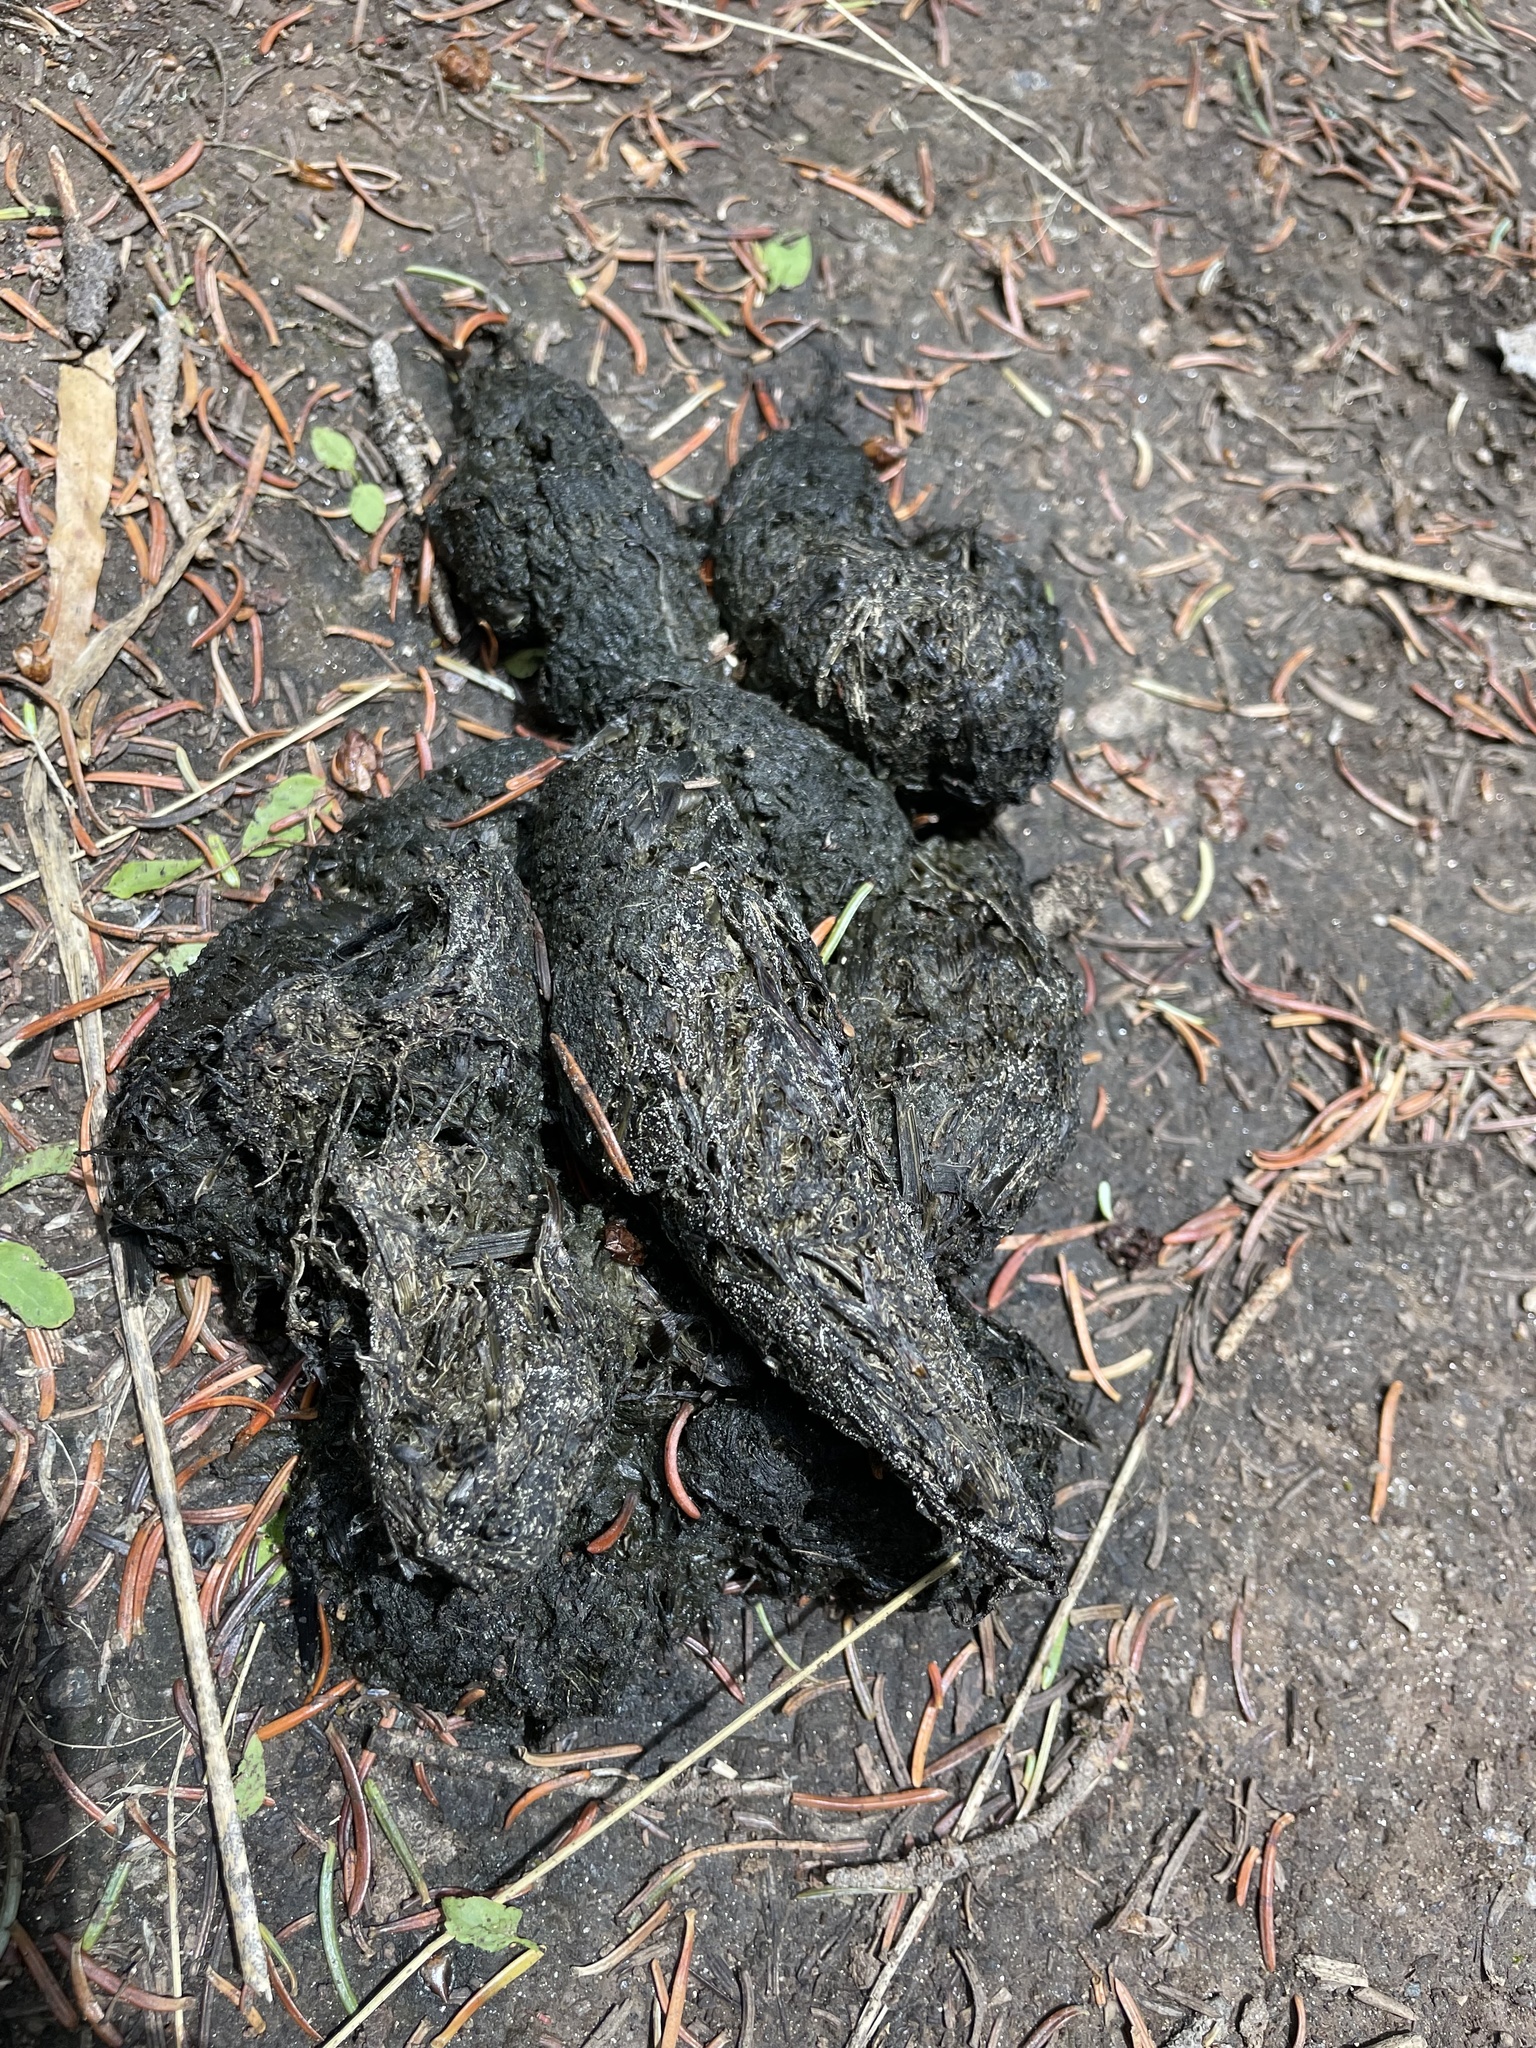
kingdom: Animalia
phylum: Chordata
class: Mammalia
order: Carnivora
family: Ursidae
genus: Ursus
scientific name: Ursus americanus
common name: American black bear
